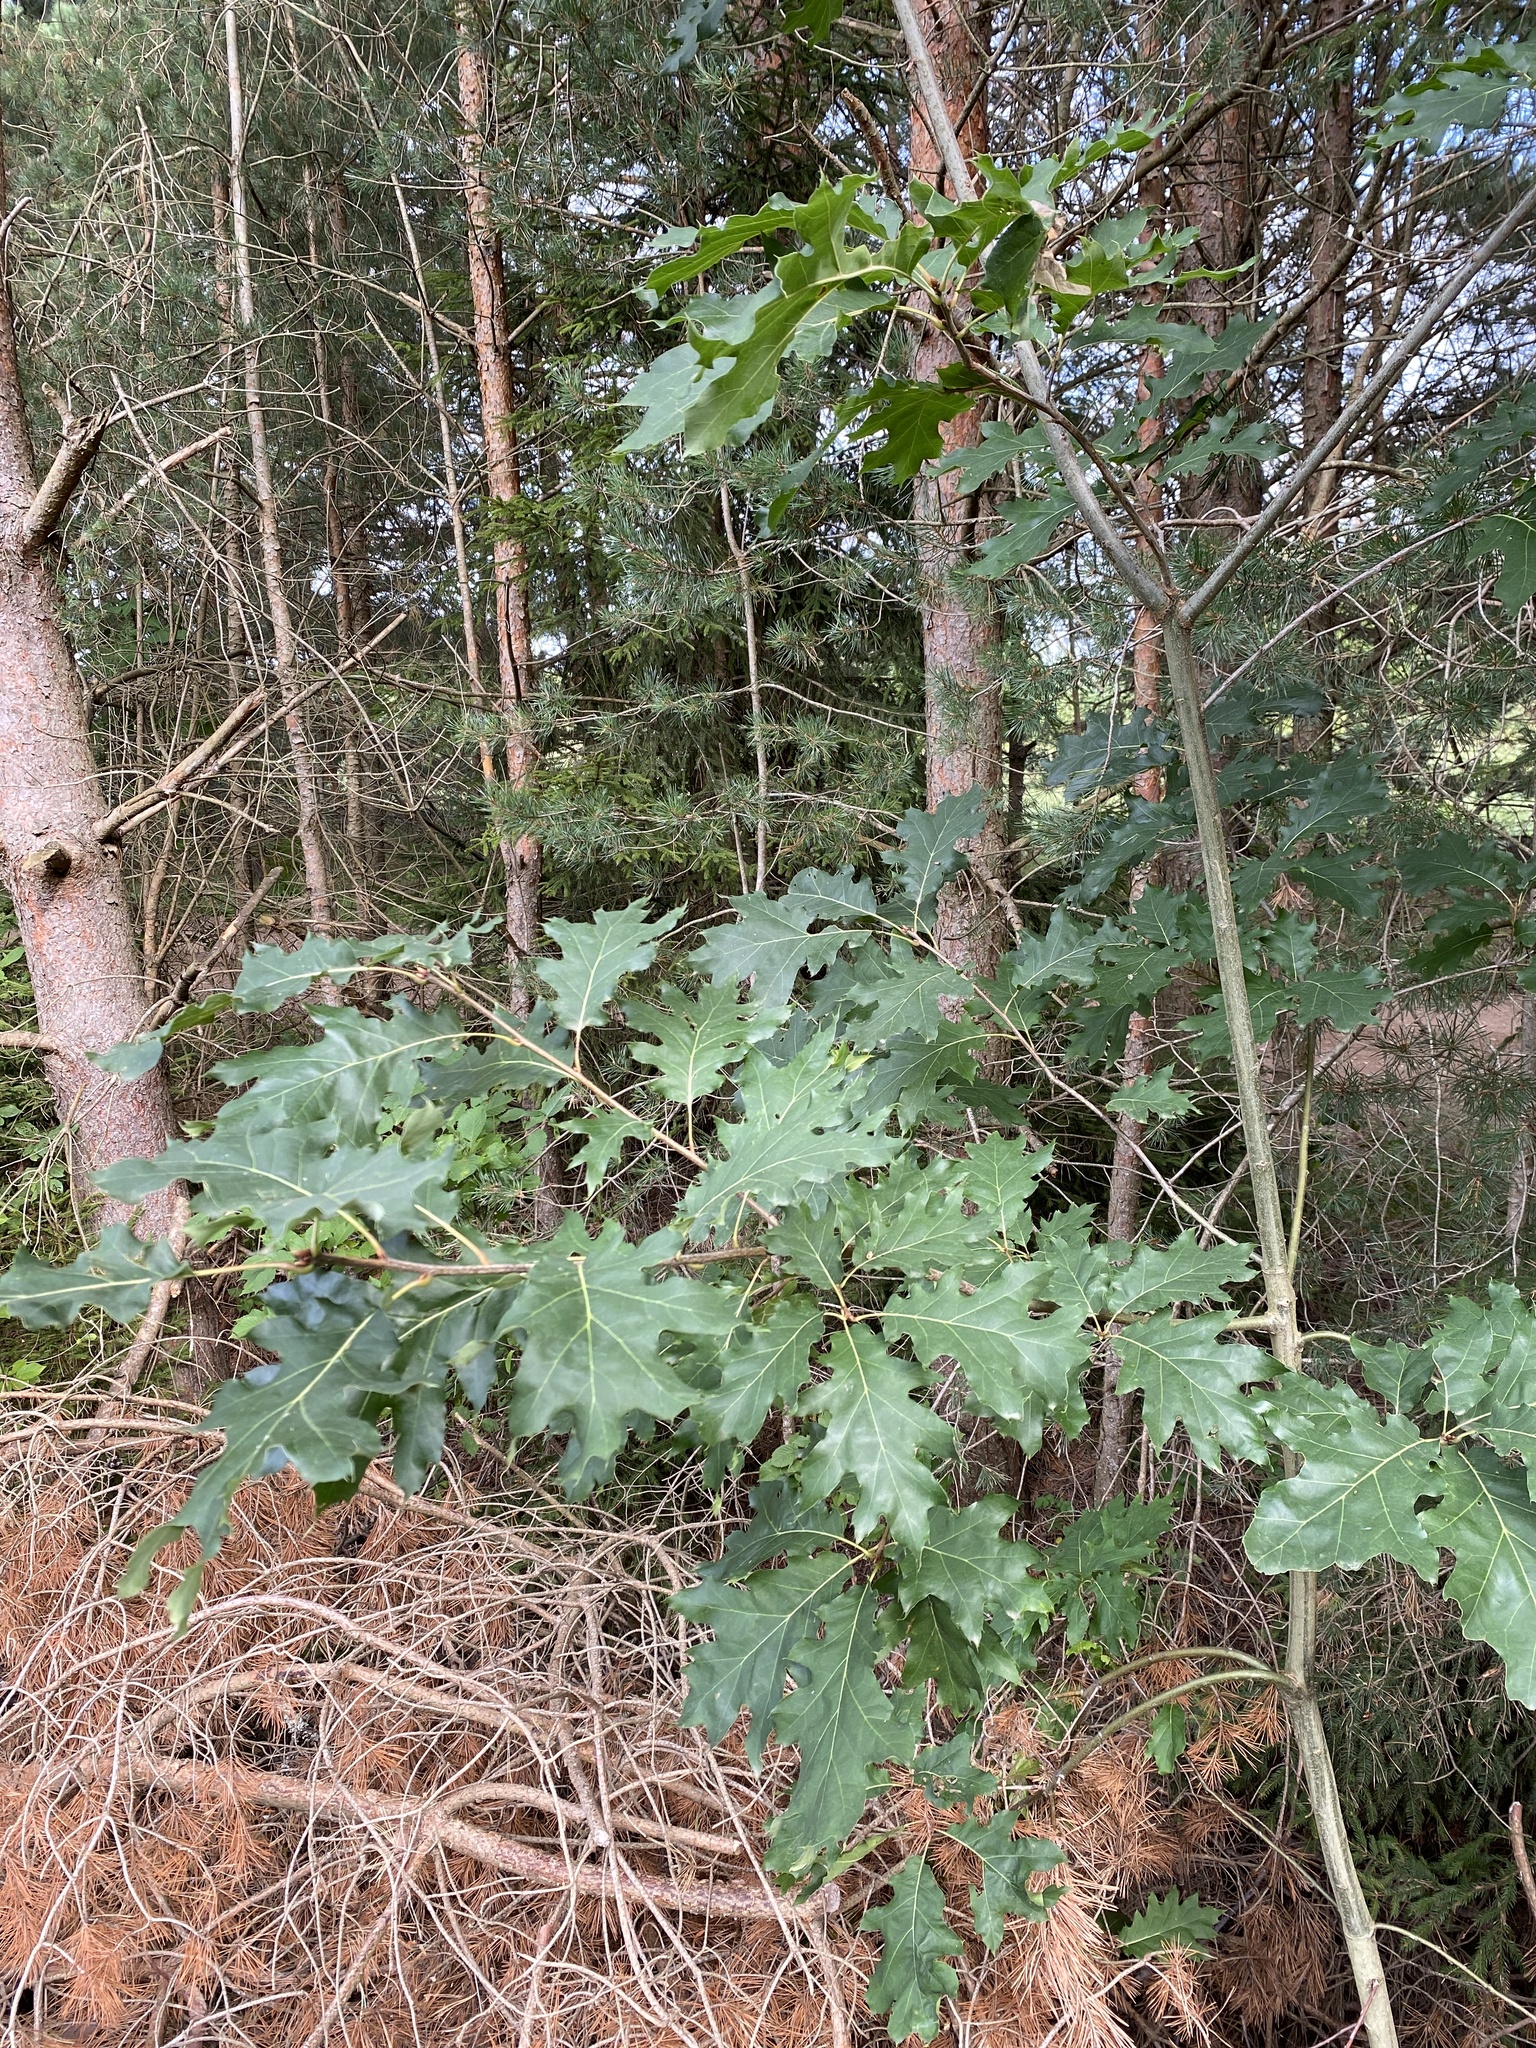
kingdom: Plantae
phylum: Tracheophyta
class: Magnoliopsida
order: Fagales
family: Fagaceae
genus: Quercus
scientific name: Quercus rubra
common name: Red oak
